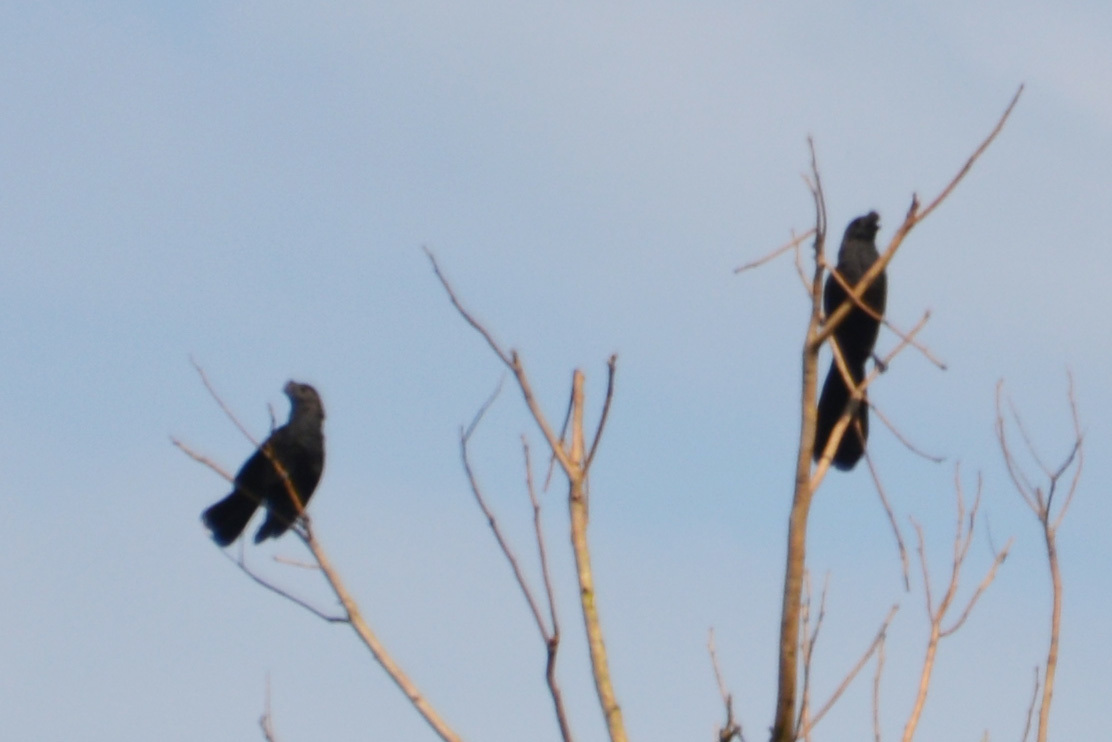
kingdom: Animalia
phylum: Chordata
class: Aves
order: Cuculiformes
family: Cuculidae
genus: Crotophaga
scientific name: Crotophaga ani
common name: Smooth-billed ani
